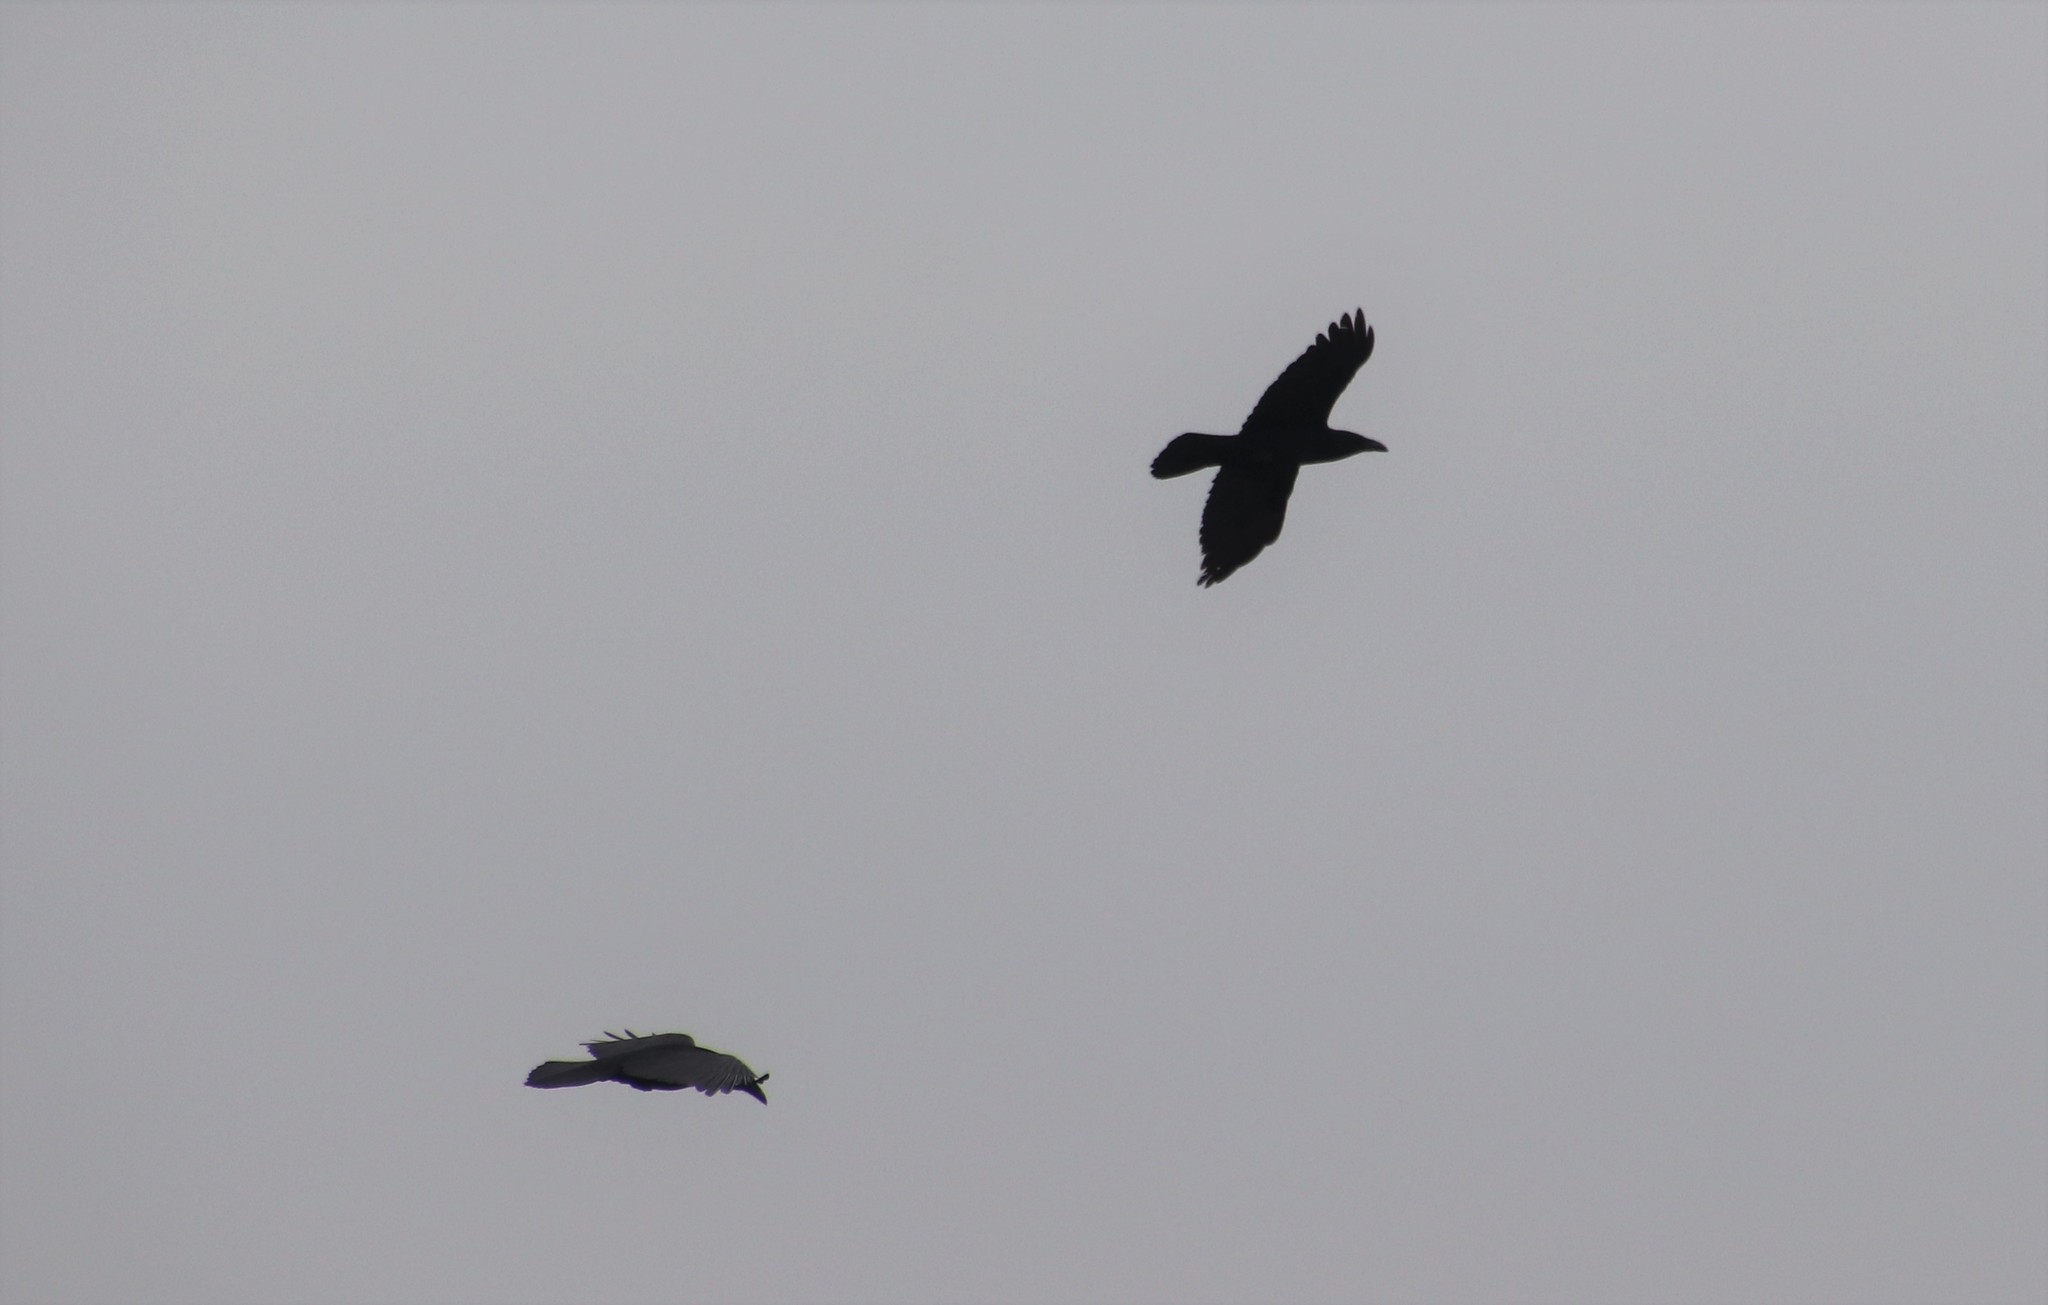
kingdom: Animalia
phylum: Chordata
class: Aves
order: Passeriformes
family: Corvidae
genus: Corvus
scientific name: Corvus corax
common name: Common raven
